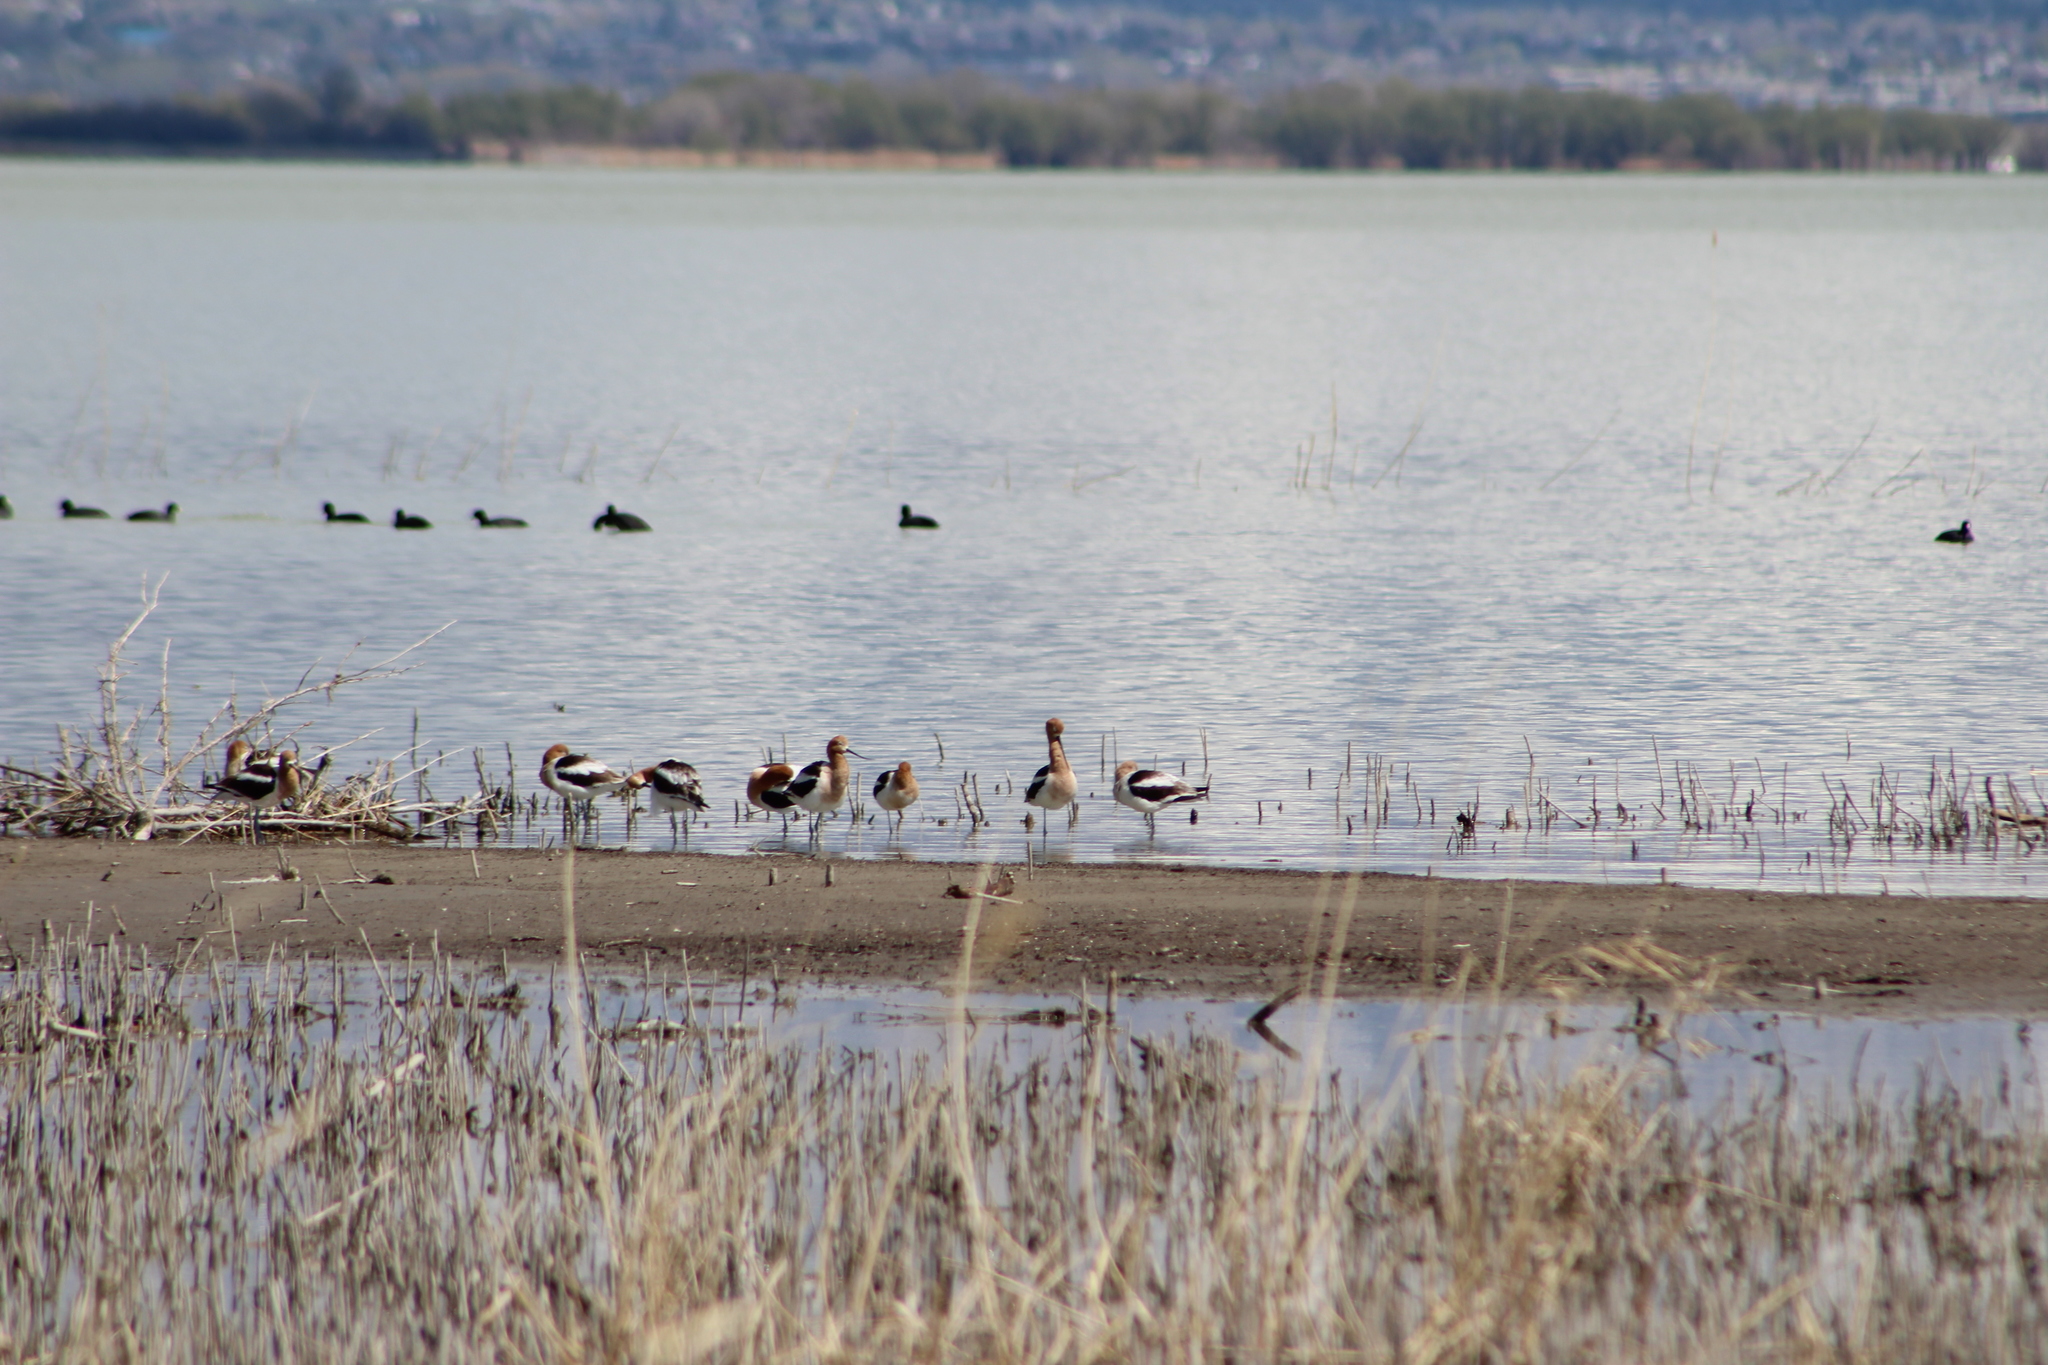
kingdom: Animalia
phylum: Chordata
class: Aves
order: Charadriiformes
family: Recurvirostridae
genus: Recurvirostra
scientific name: Recurvirostra americana
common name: American avocet
